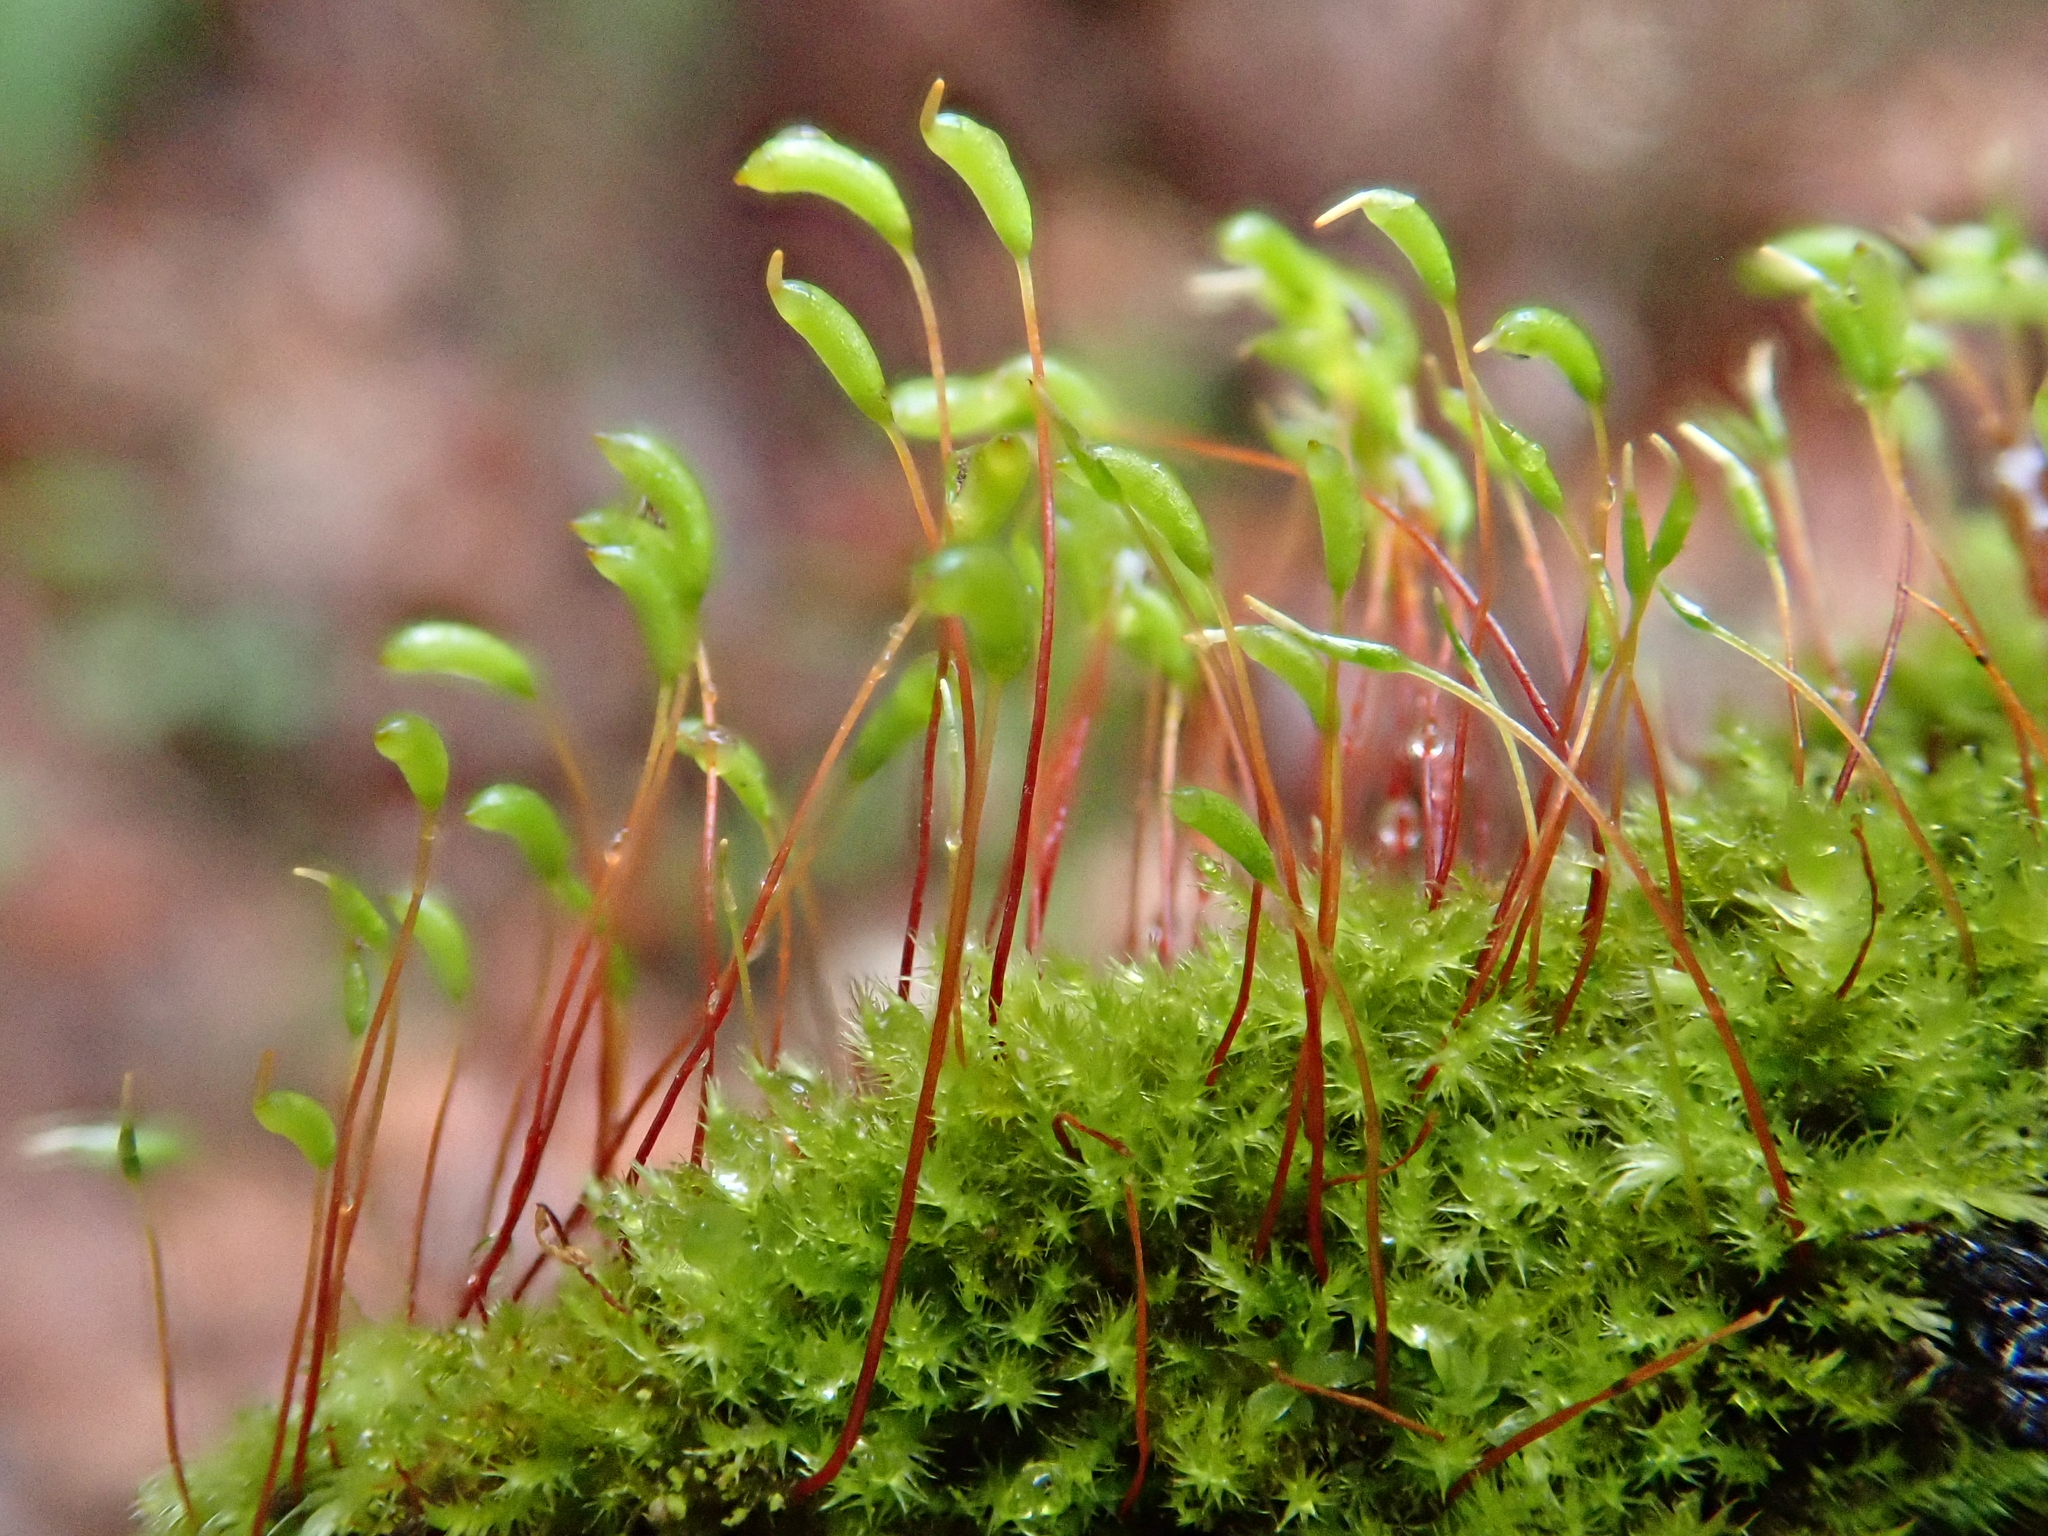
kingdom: Plantae
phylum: Bryophyta
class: Bryopsida
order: Hypnales
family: Amblystegiaceae
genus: Amblystegium
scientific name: Amblystegium serpens
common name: Jurkatzka's feather moss
